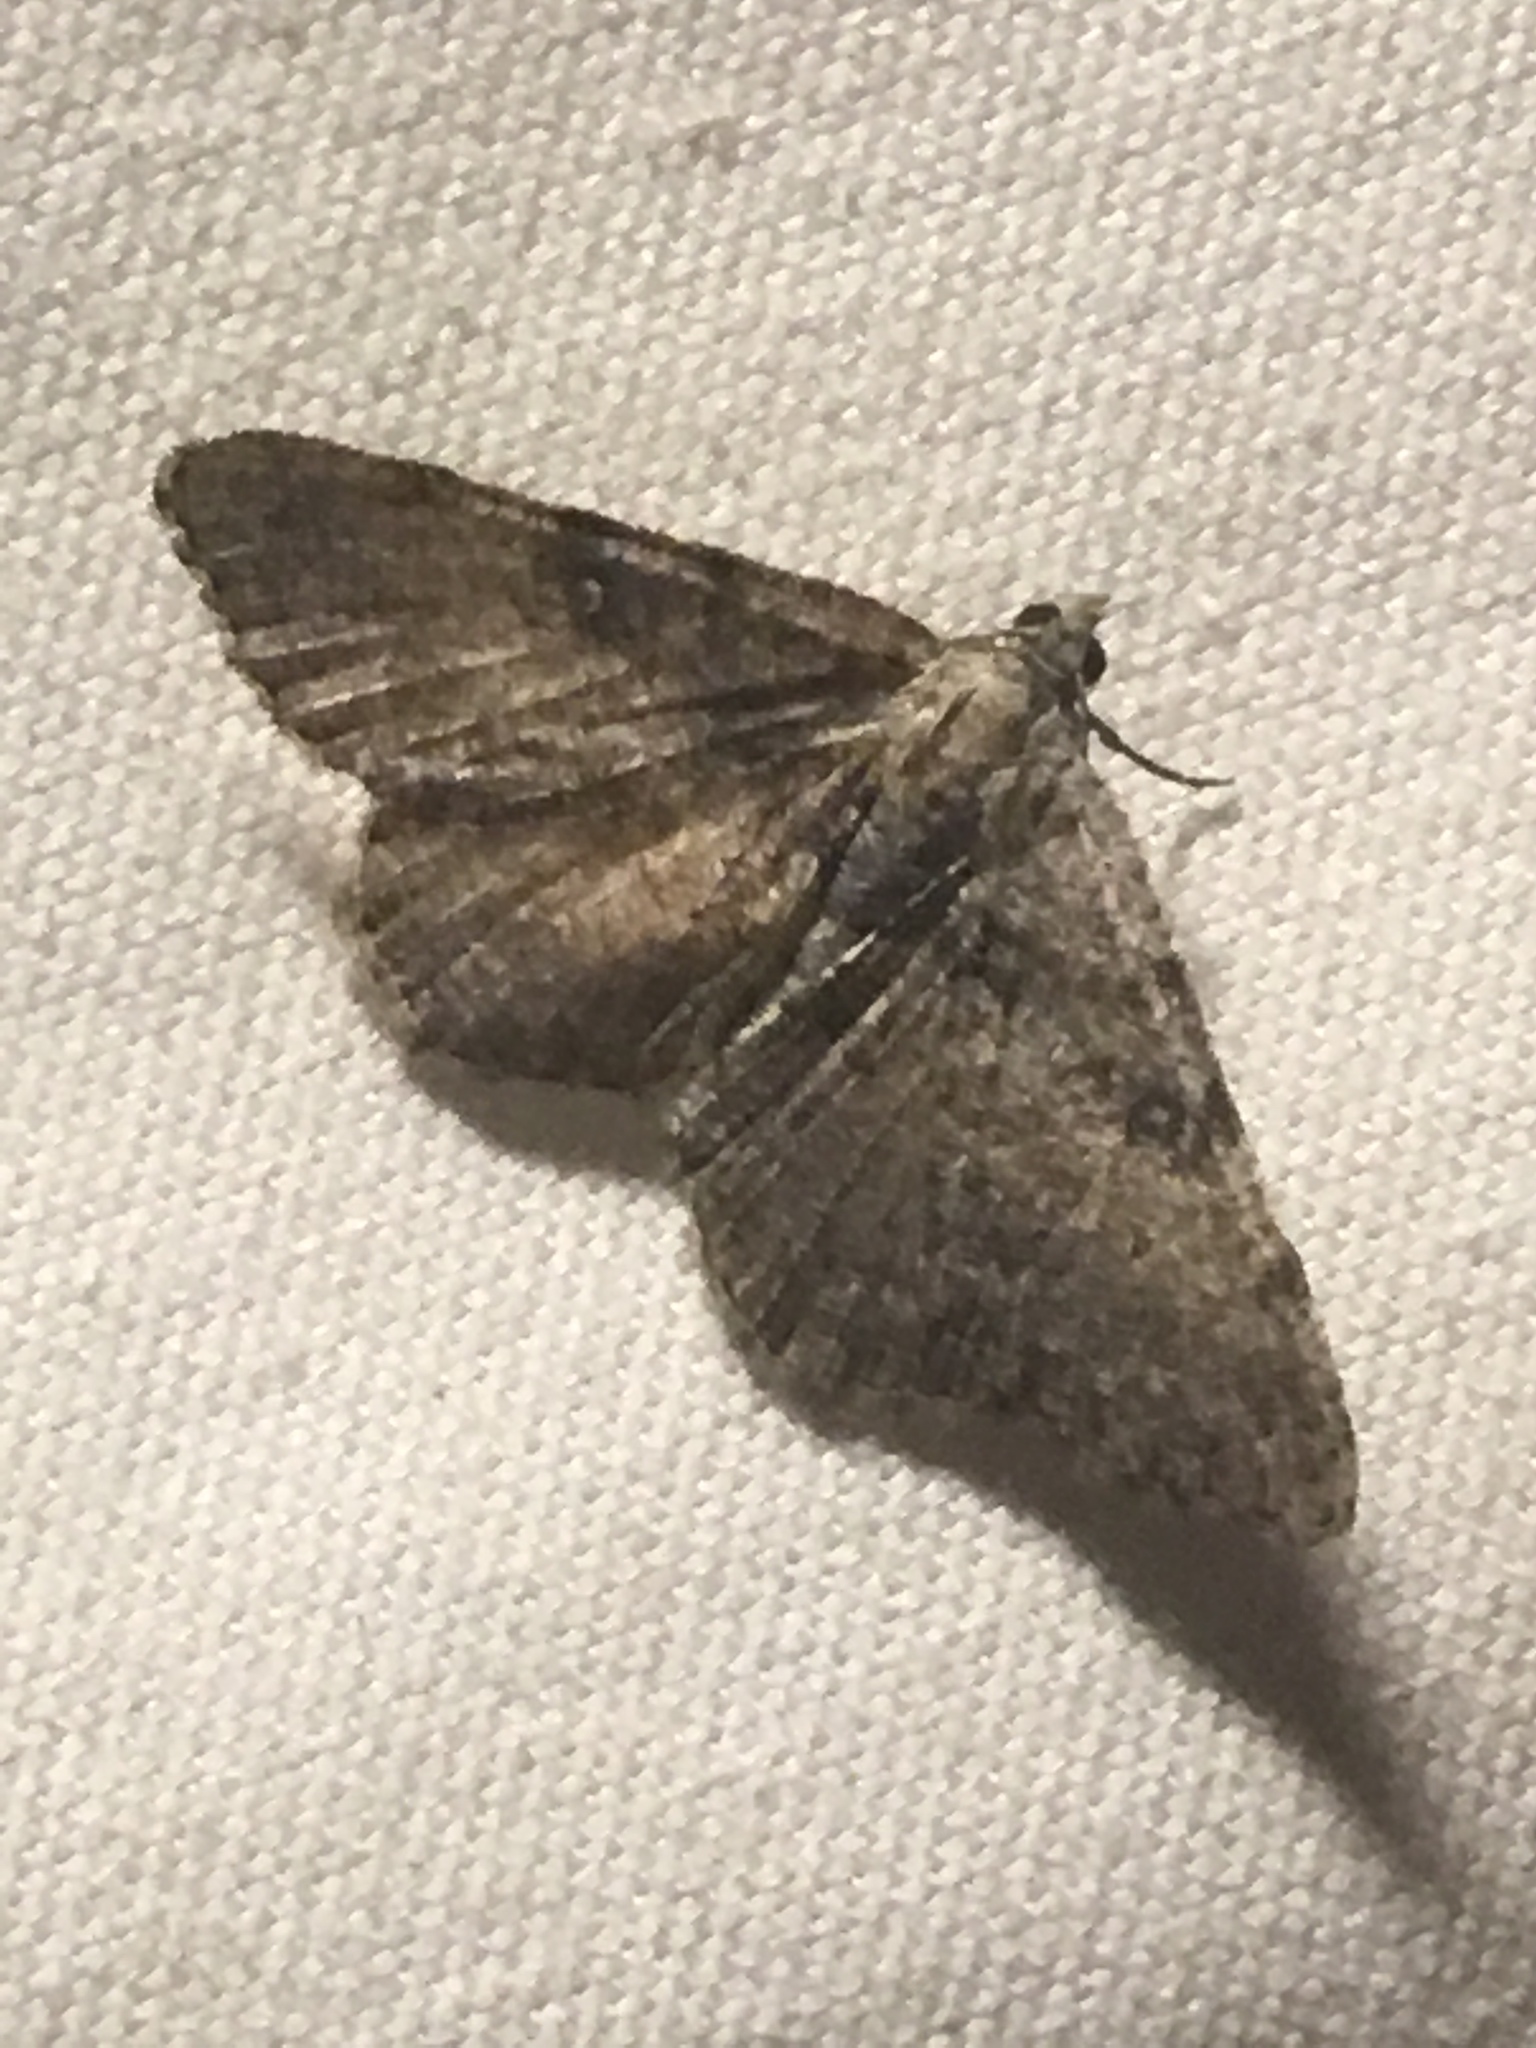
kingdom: Animalia
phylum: Arthropoda
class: Insecta
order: Lepidoptera
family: Geometridae
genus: Digrammia
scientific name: Digrammia gnophosaria
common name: Hollow-spotted angle
